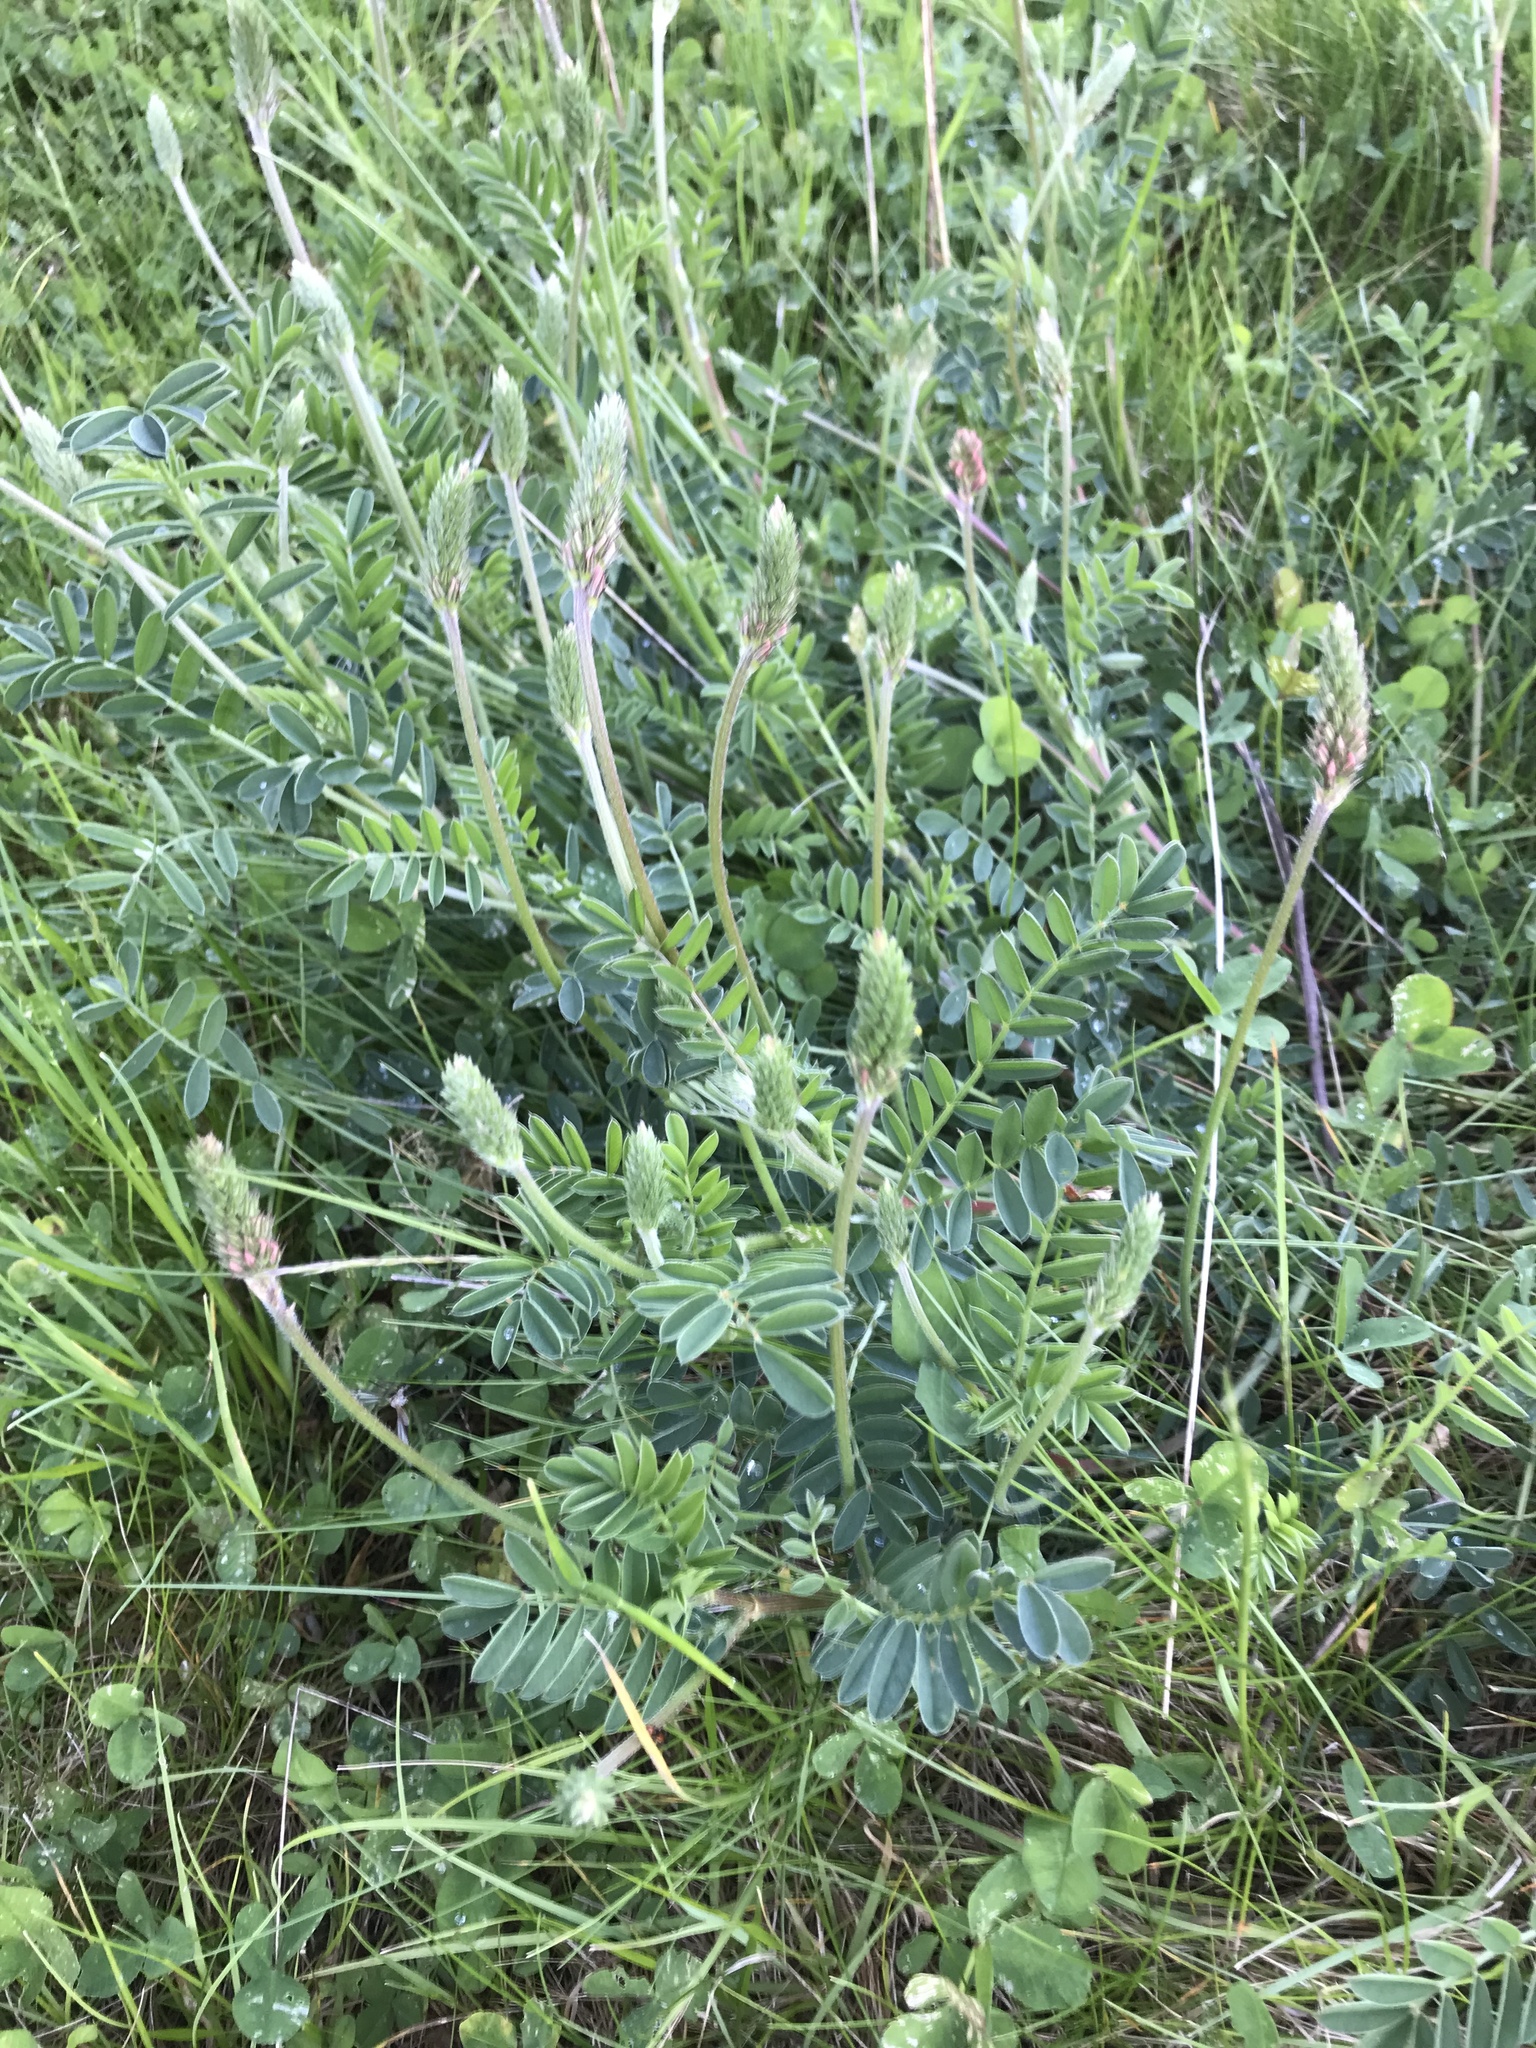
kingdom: Plantae
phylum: Tracheophyta
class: Magnoliopsida
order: Fabales
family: Fabaceae
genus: Onobrychis
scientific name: Onobrychis viciifolia
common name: Sainfoin
